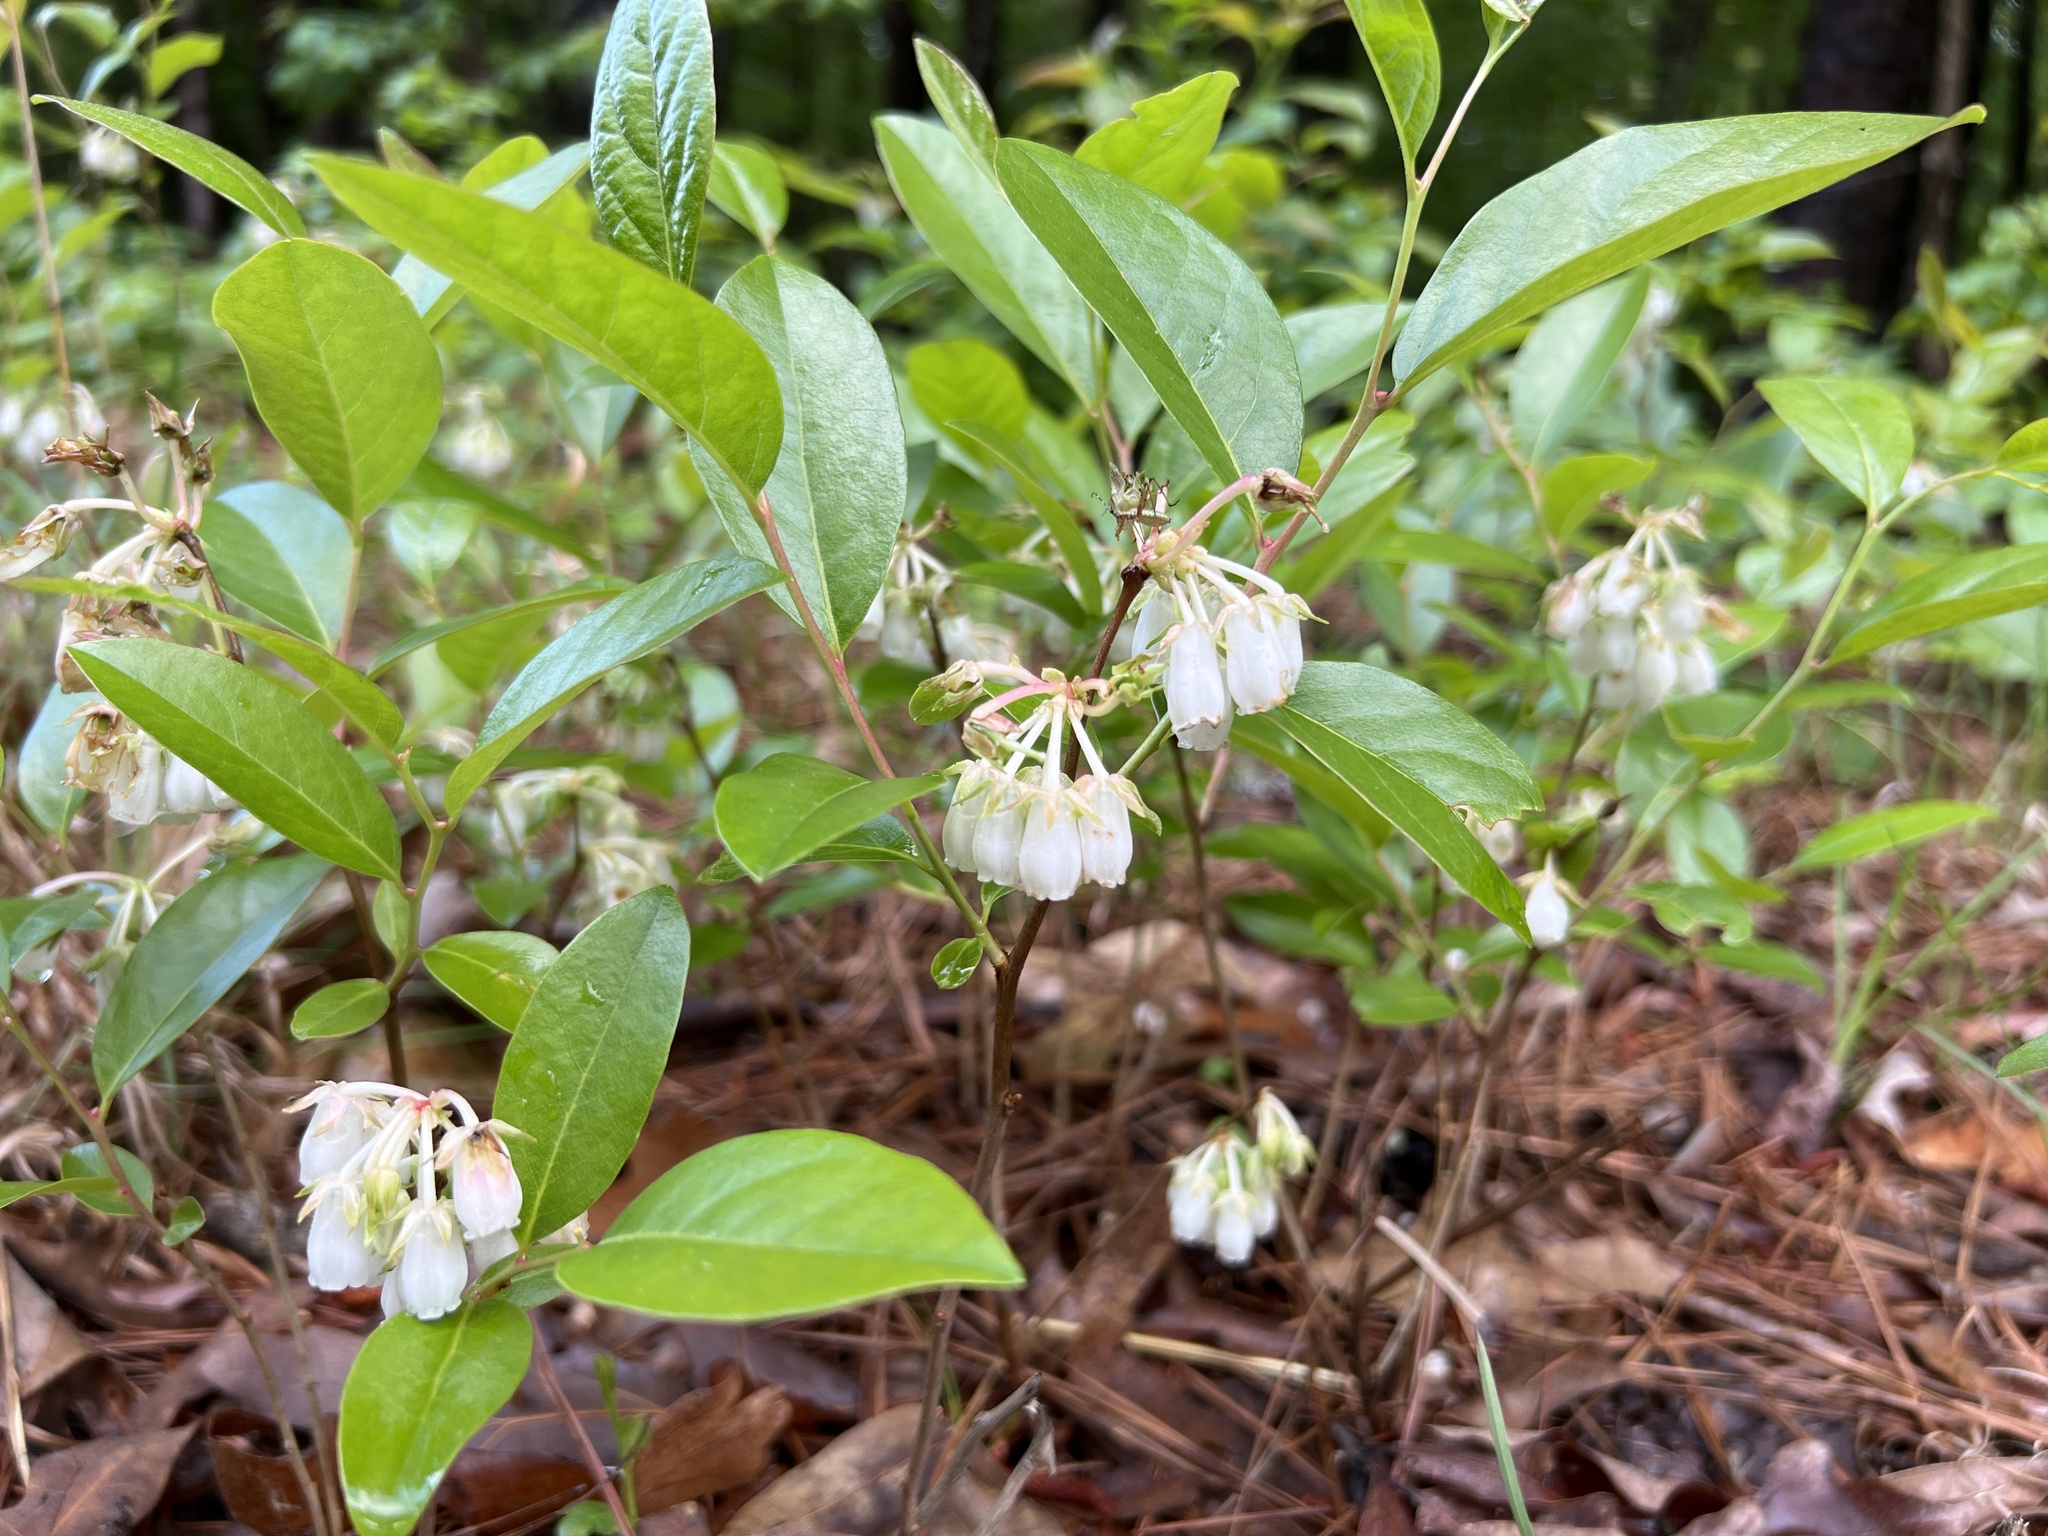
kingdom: Plantae
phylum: Tracheophyta
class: Magnoliopsida
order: Ericales
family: Ericaceae
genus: Lyonia
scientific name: Lyonia mariana
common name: Staggerbush
